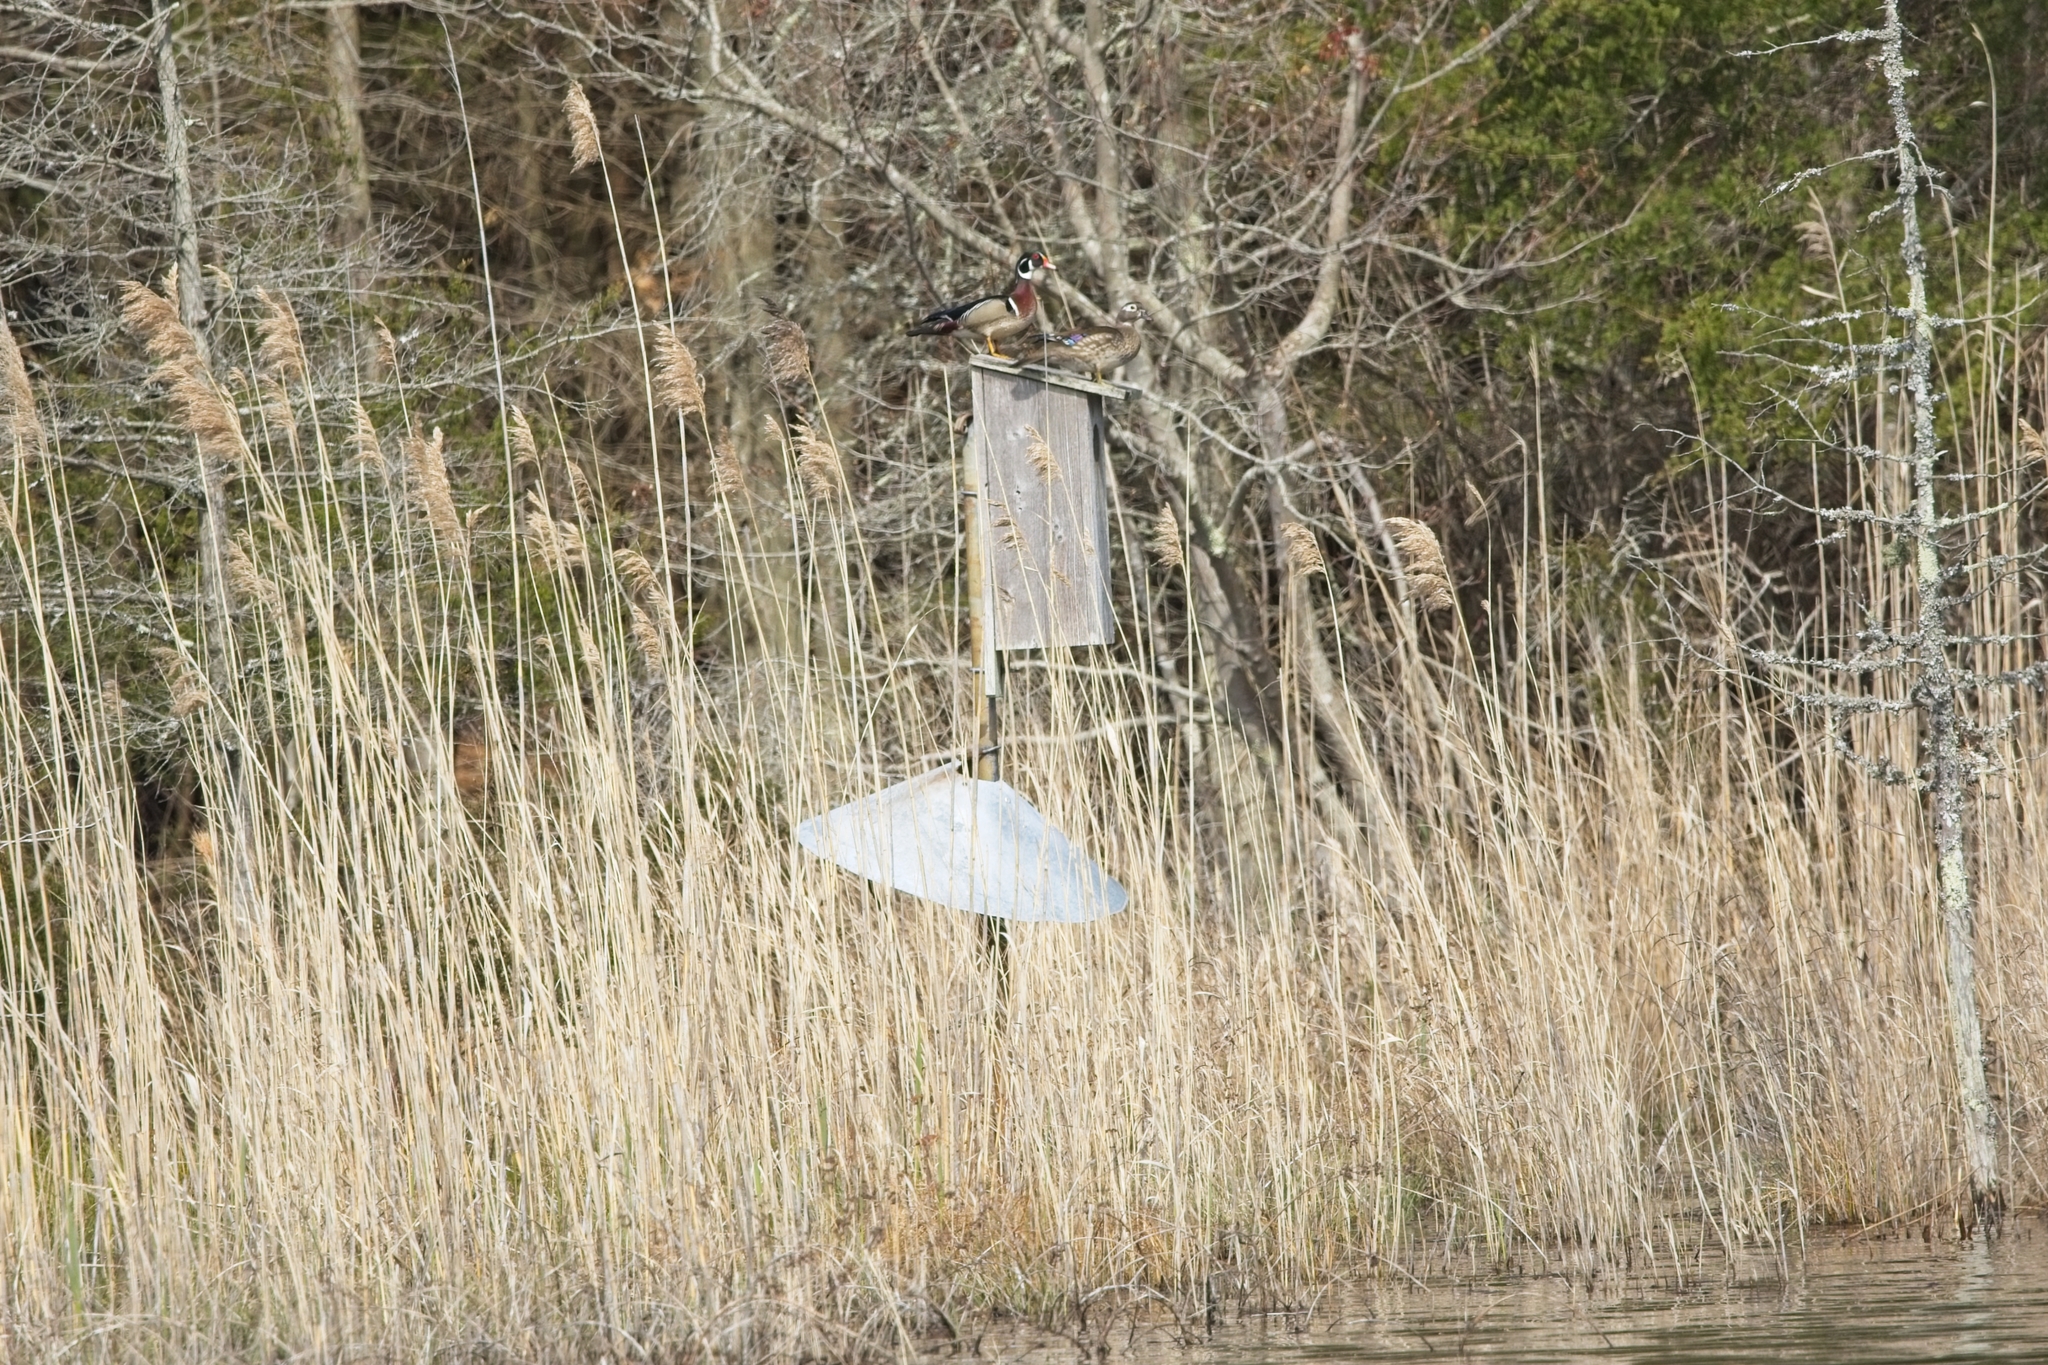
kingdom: Animalia
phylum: Chordata
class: Aves
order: Anseriformes
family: Anatidae
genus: Aix
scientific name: Aix sponsa
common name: Wood duck
